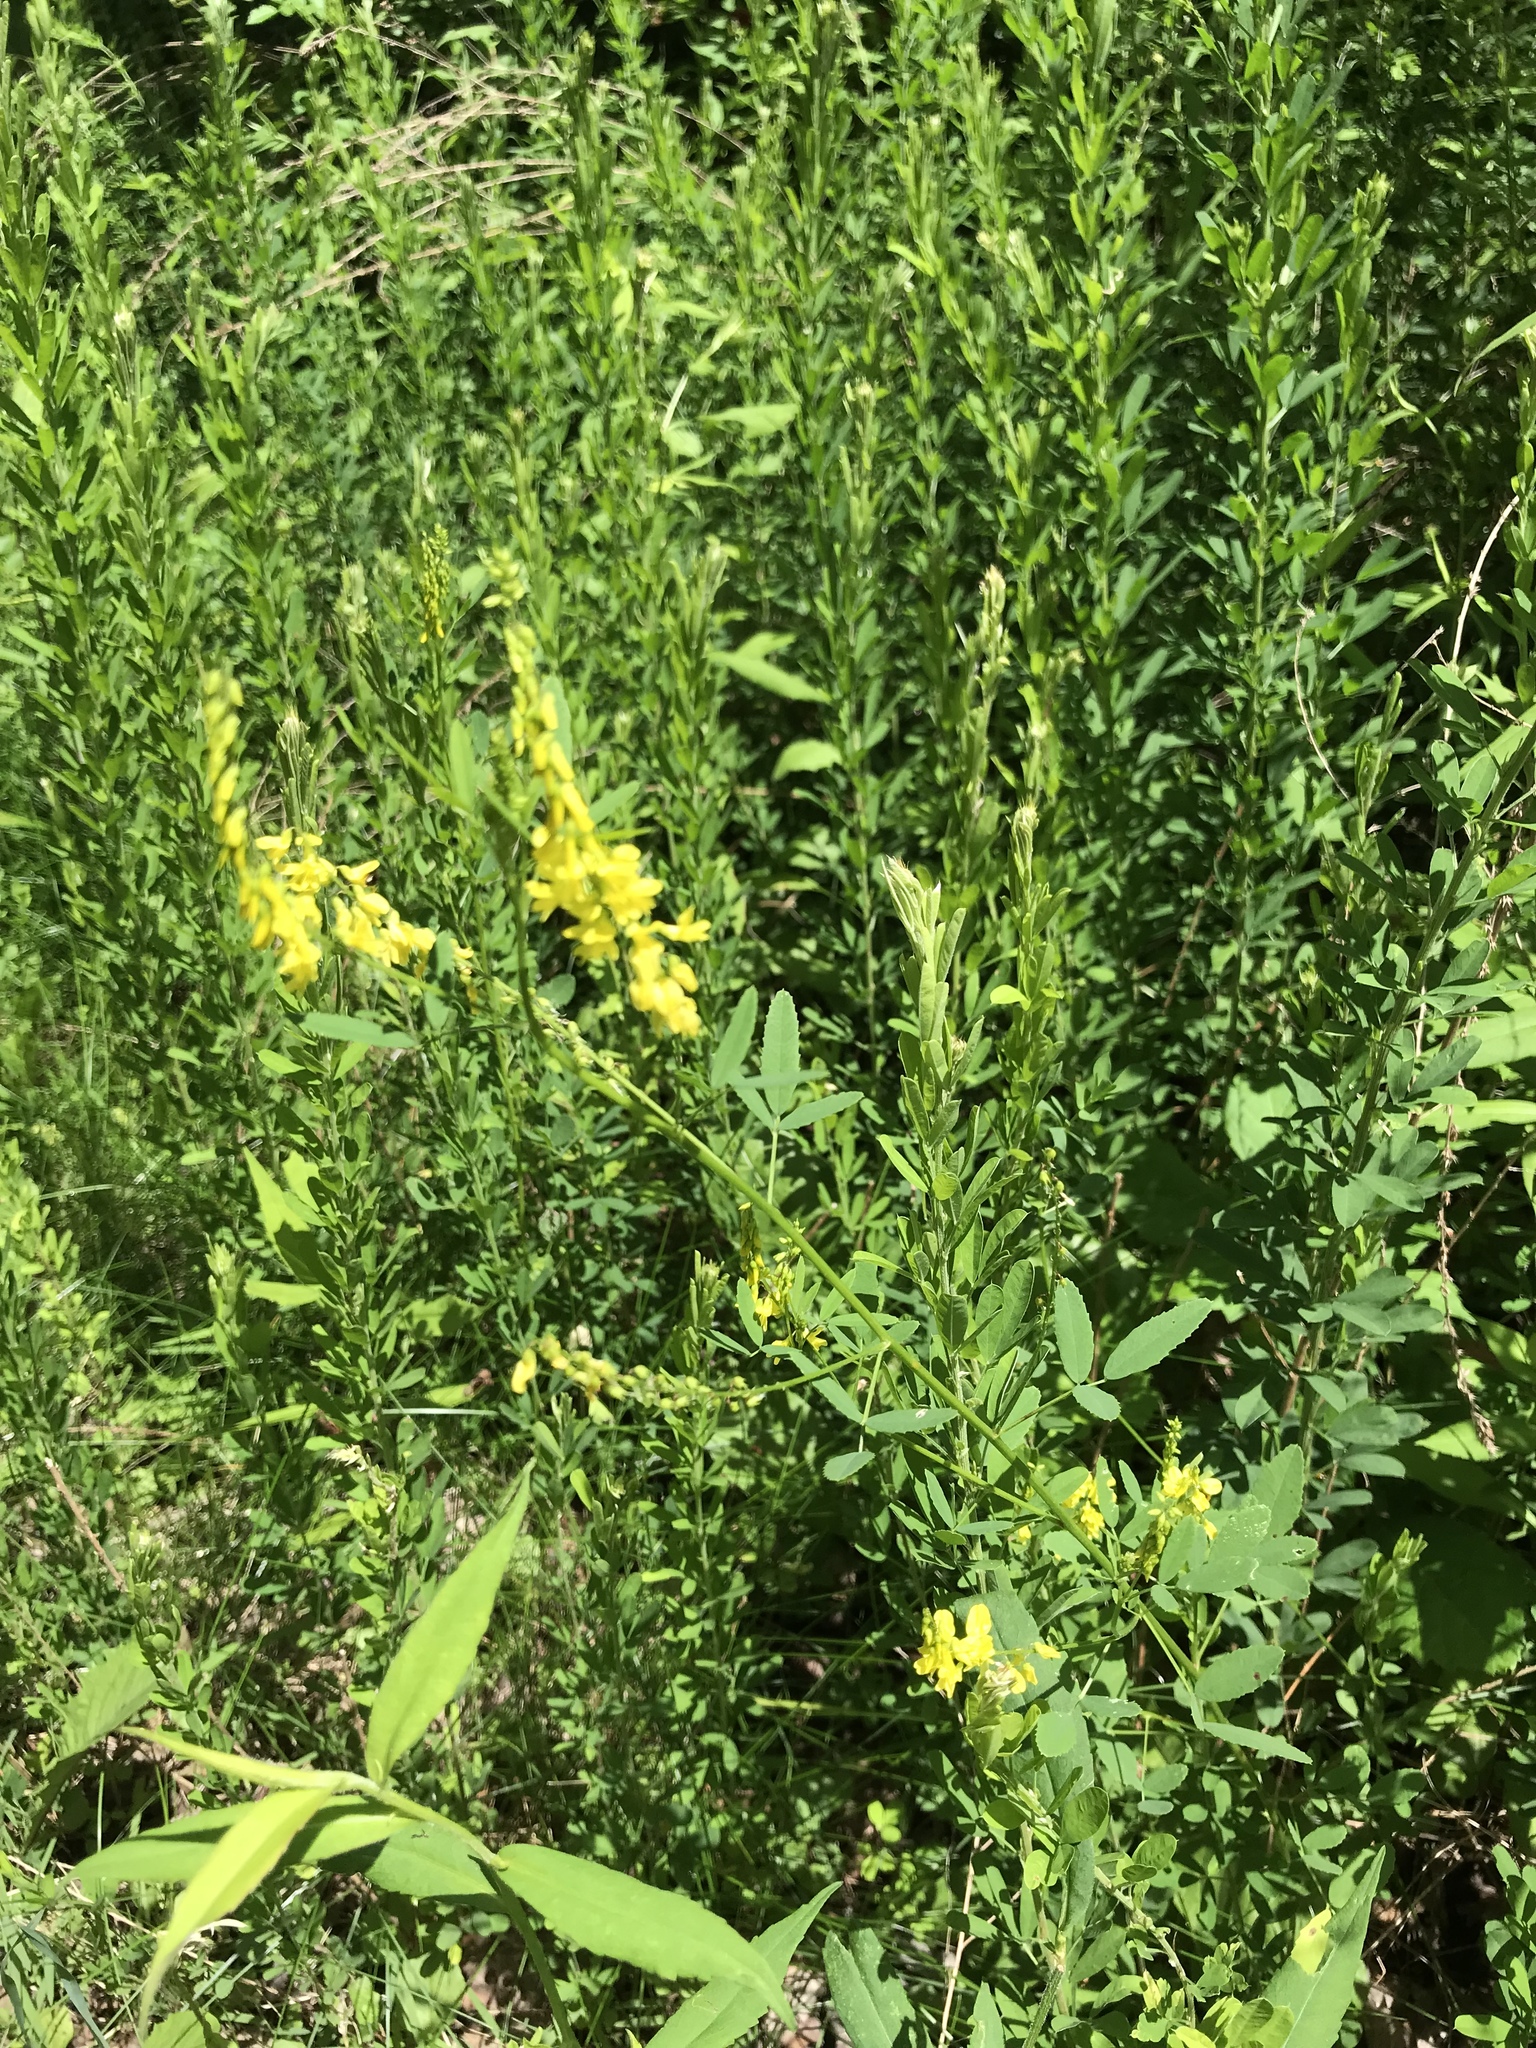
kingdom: Plantae
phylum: Tracheophyta
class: Magnoliopsida
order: Fabales
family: Fabaceae
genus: Melilotus
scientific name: Melilotus officinalis
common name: Sweetclover
